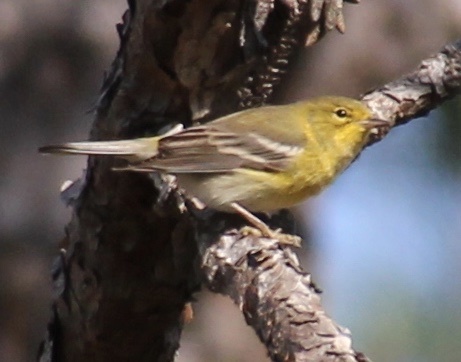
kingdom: Animalia
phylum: Chordata
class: Aves
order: Passeriformes
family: Parulidae
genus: Setophaga
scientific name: Setophaga pinus
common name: Pine warbler
